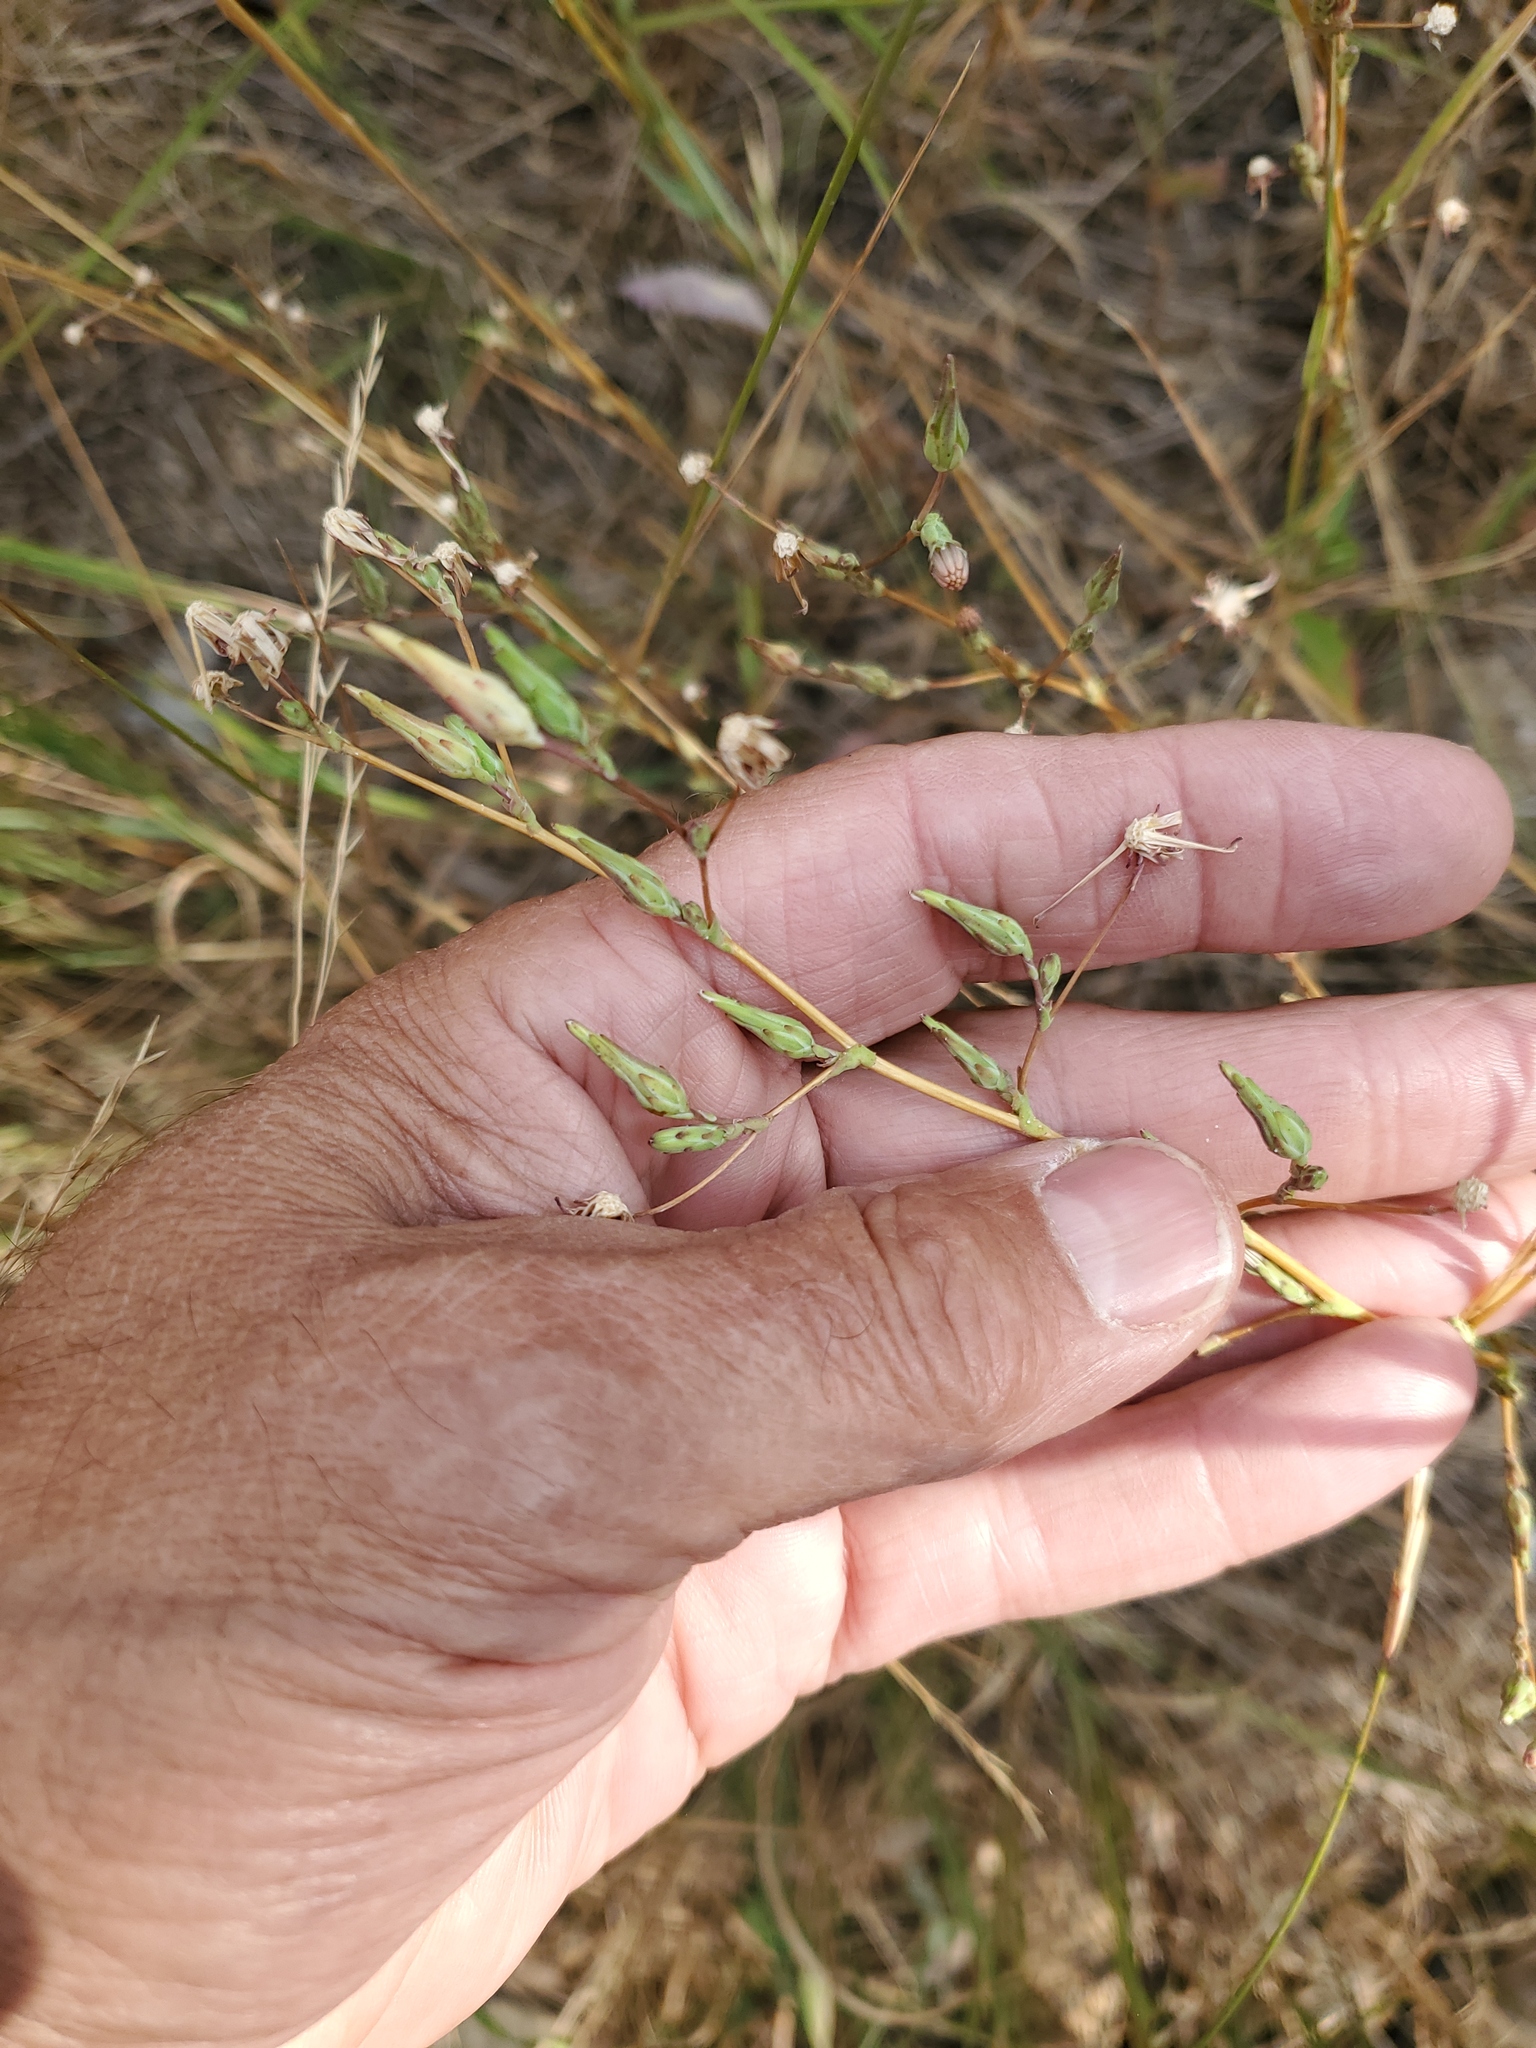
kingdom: Plantae
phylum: Tracheophyta
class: Magnoliopsida
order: Asterales
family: Asteraceae
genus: Lactuca
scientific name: Lactuca serriola
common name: Prickly lettuce
